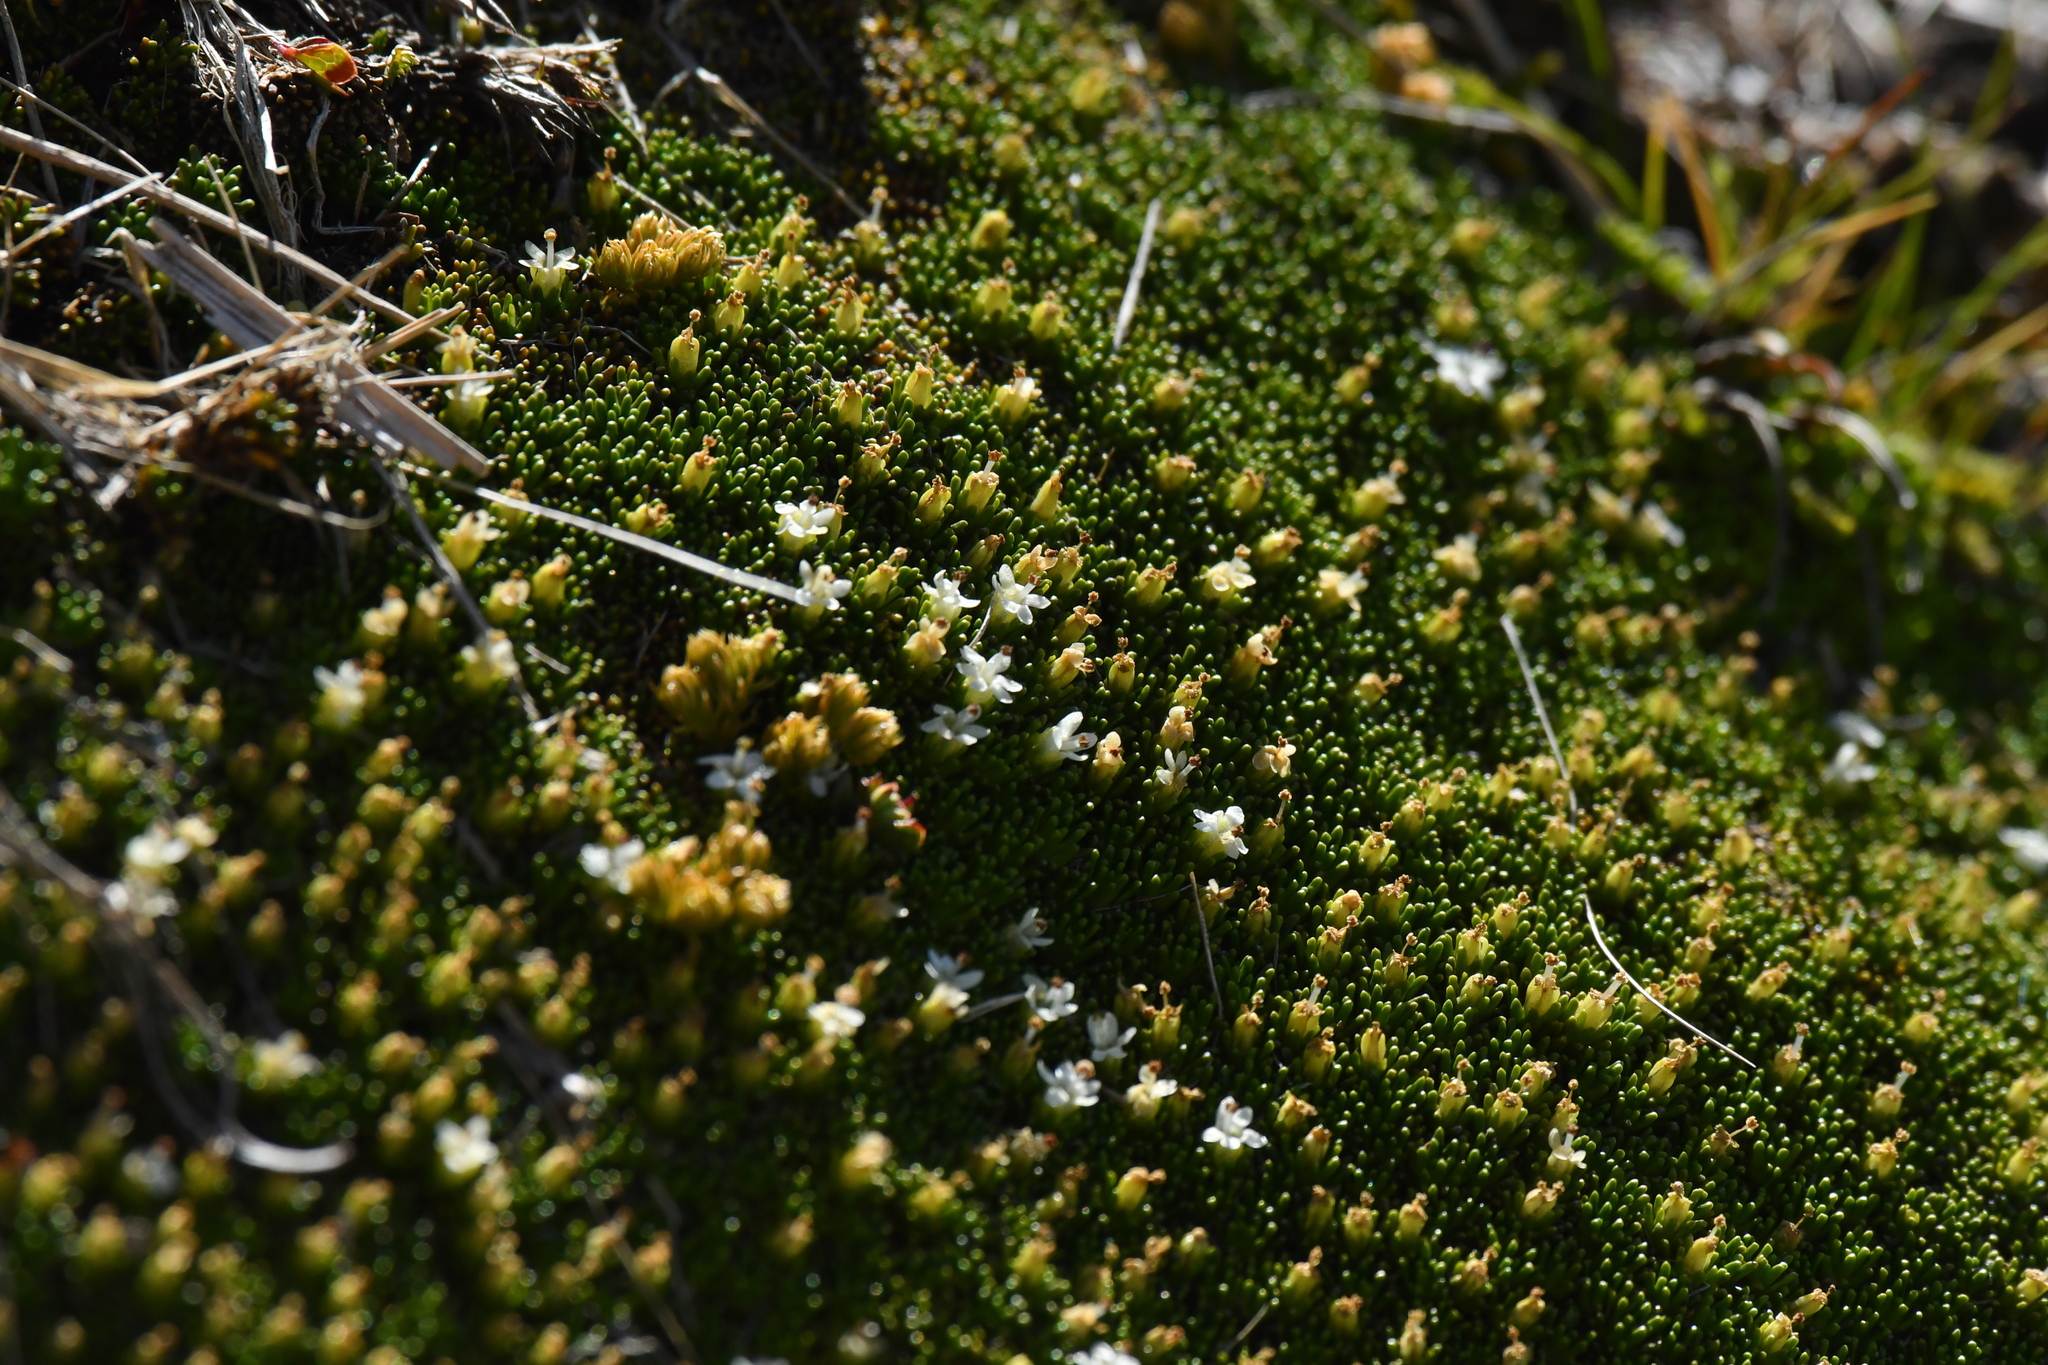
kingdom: Plantae
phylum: Tracheophyta
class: Magnoliopsida
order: Asterales
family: Stylidiaceae
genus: Phyllachne
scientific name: Phyllachne colensoi
